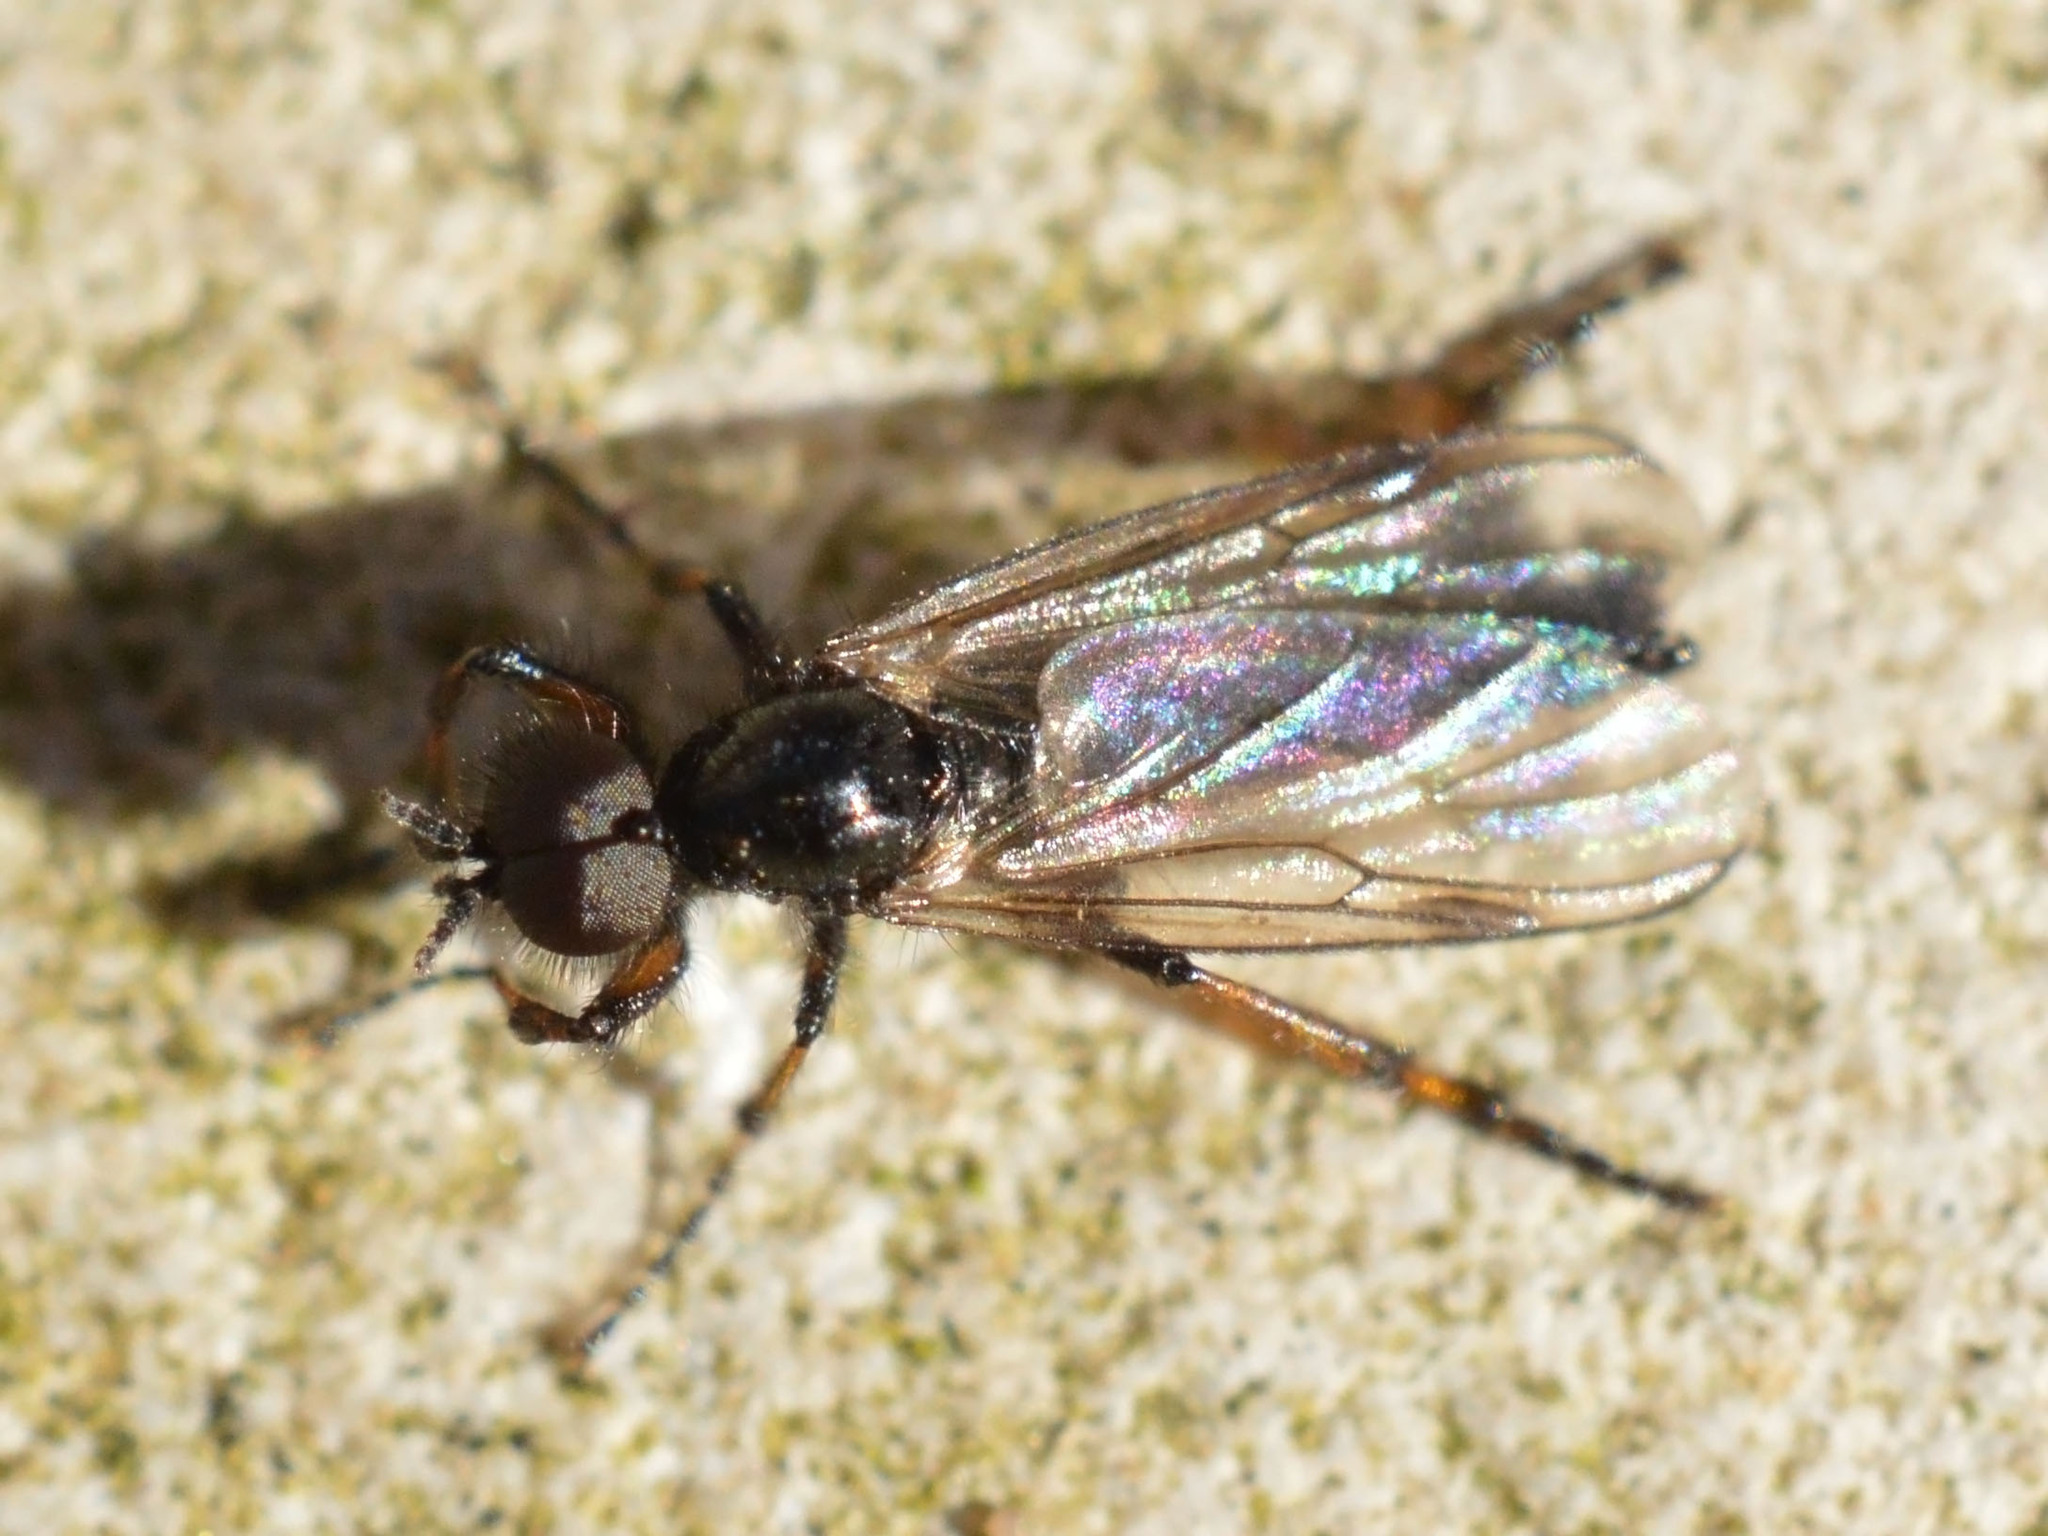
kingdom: Animalia
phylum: Arthropoda
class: Insecta
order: Diptera
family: Bibionidae
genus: Bibio
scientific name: Bibio femoralis
